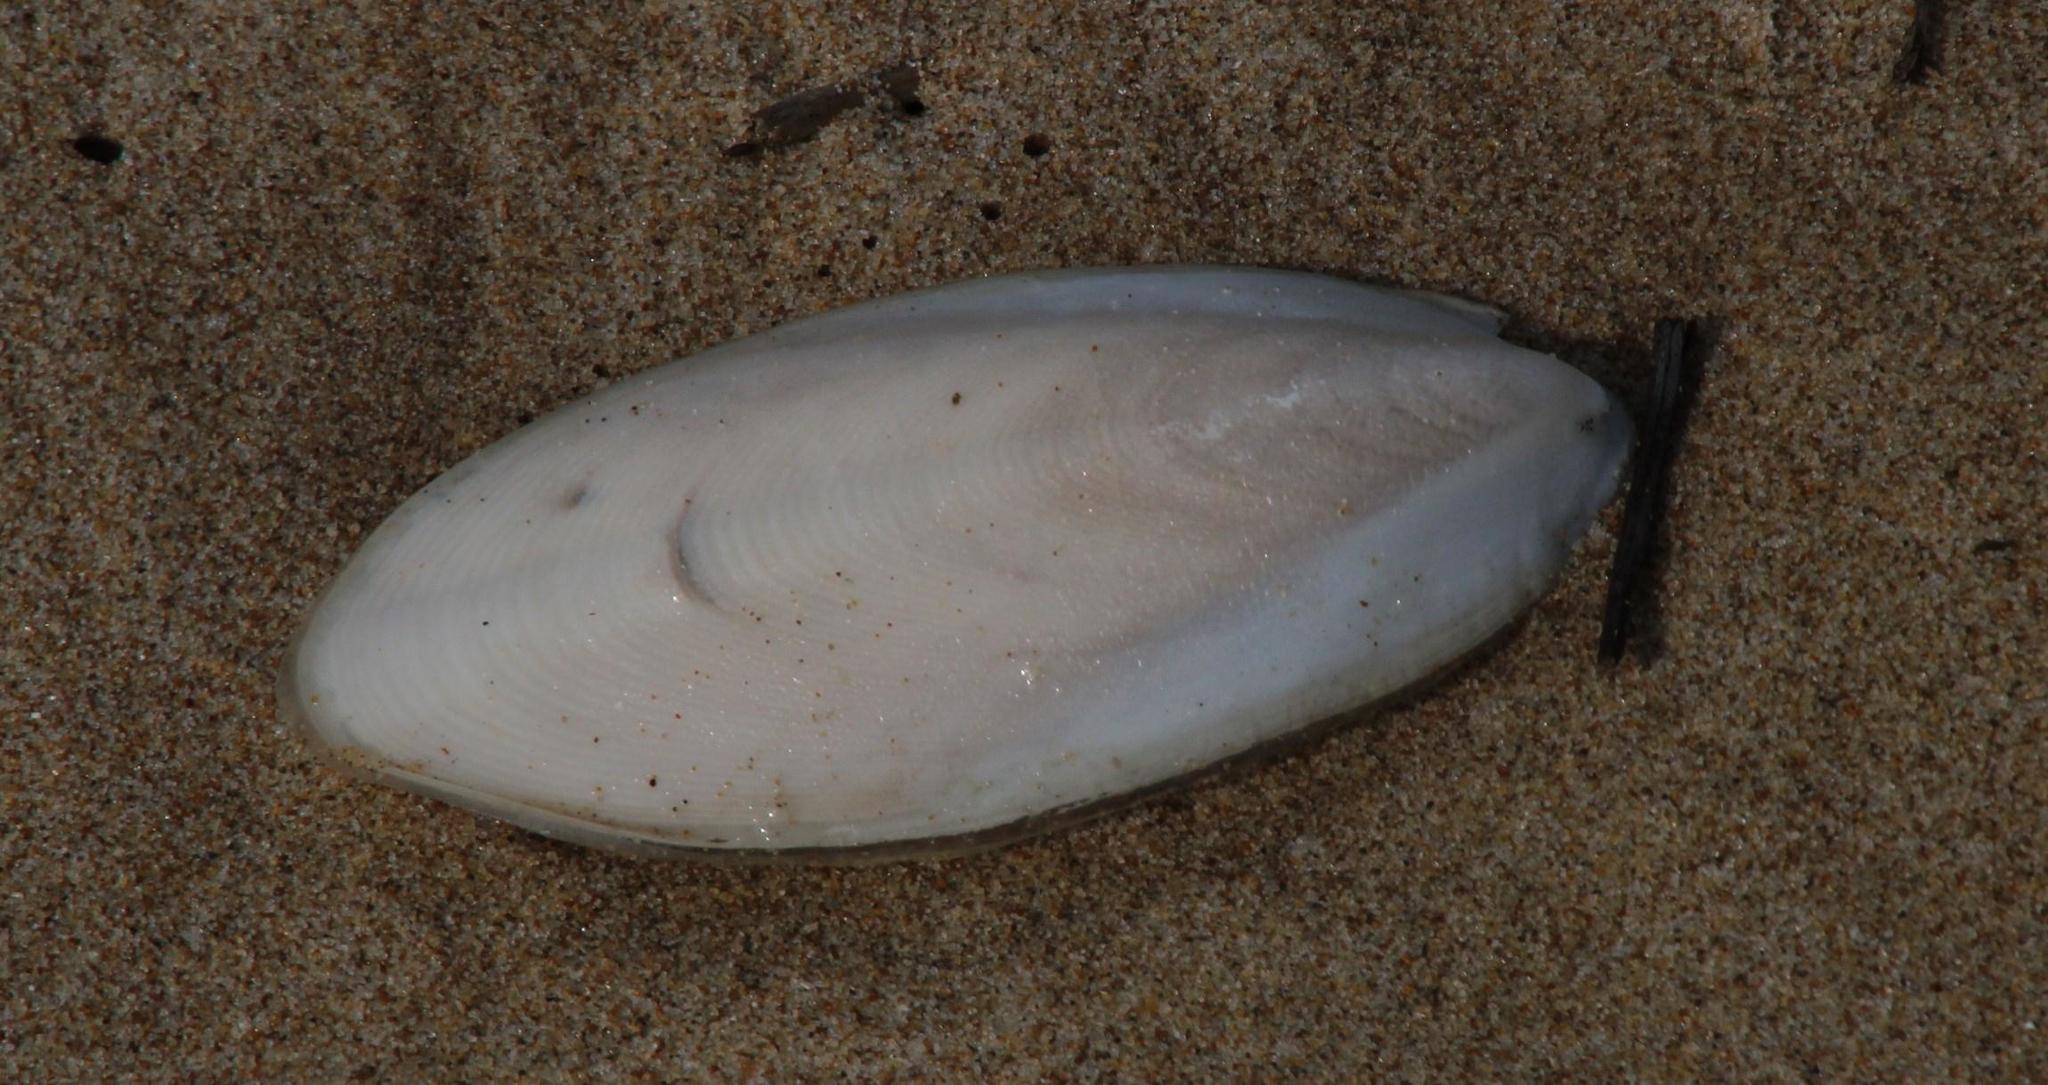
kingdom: Animalia
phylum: Mollusca
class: Cephalopoda
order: Sepiida
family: Sepiidae
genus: Sepia
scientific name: Sepia vermiculata
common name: Patchwork cuttlefish
